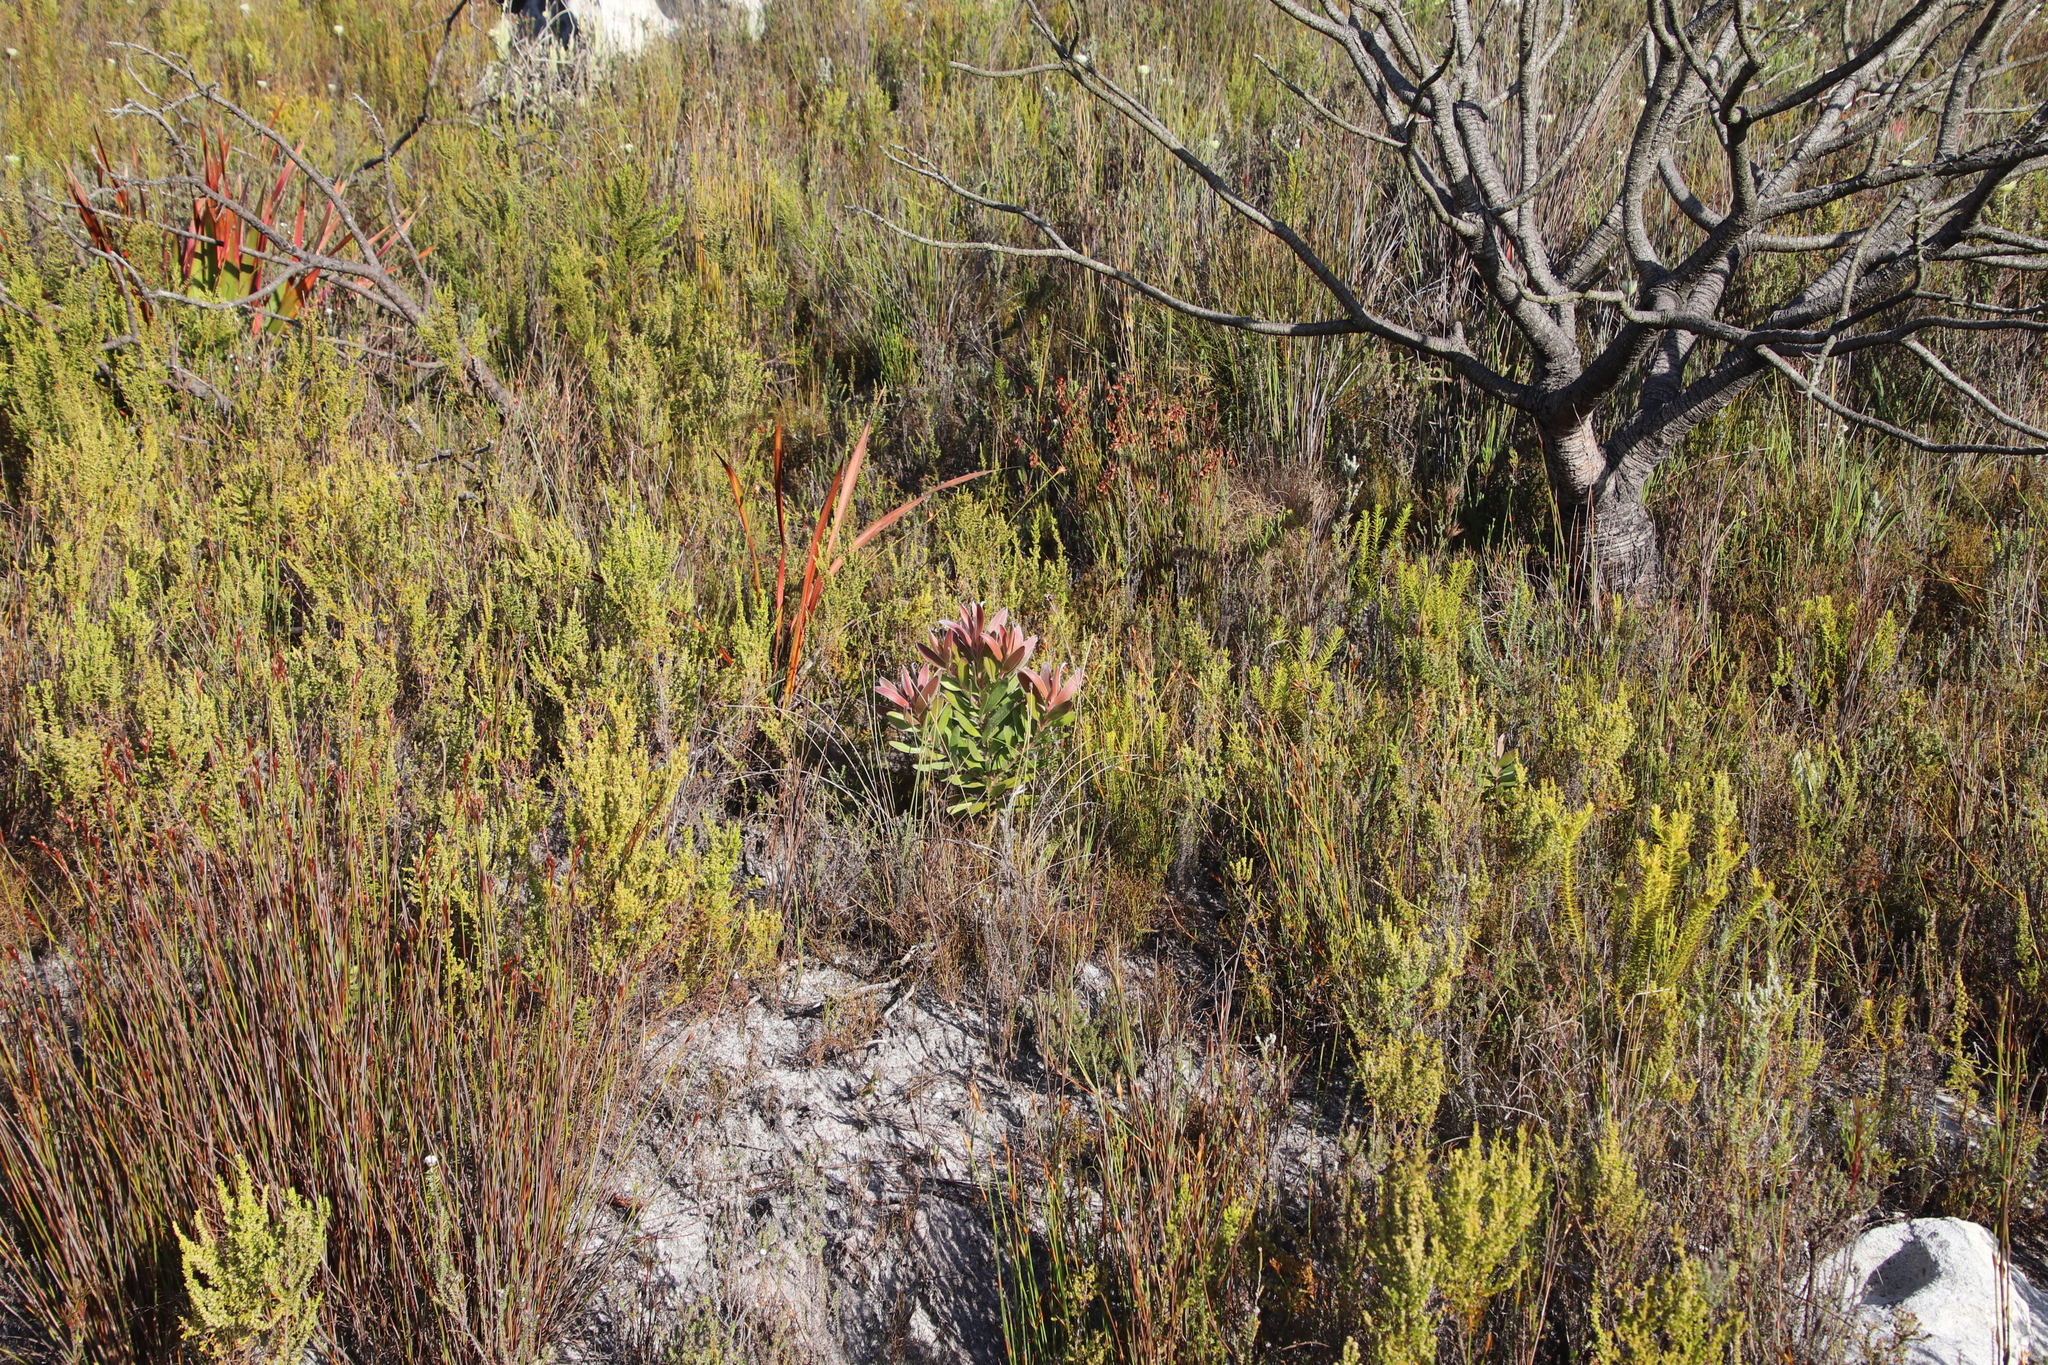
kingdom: Plantae
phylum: Tracheophyta
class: Magnoliopsida
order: Proteales
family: Proteaceae
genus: Leucadendron
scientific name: Leucadendron laureolum
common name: Golden sunshinebush
